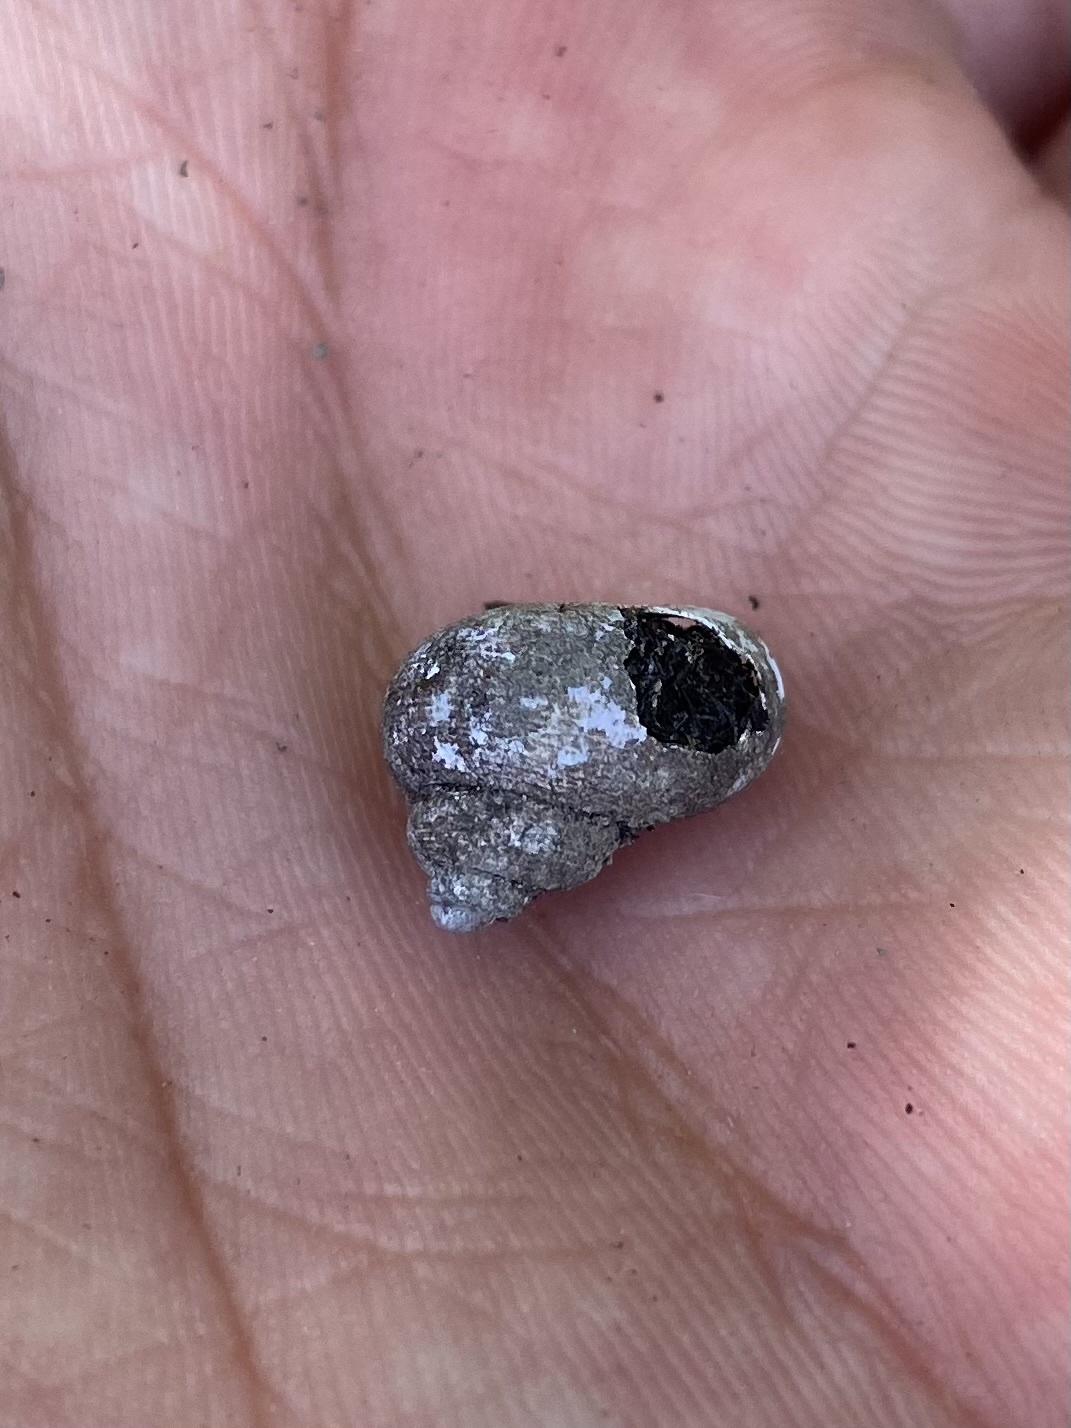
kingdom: Animalia
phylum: Mollusca
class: Gastropoda
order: Littorinimorpha
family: Pomatiidae
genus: Pomatias
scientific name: Pomatias rivularis
